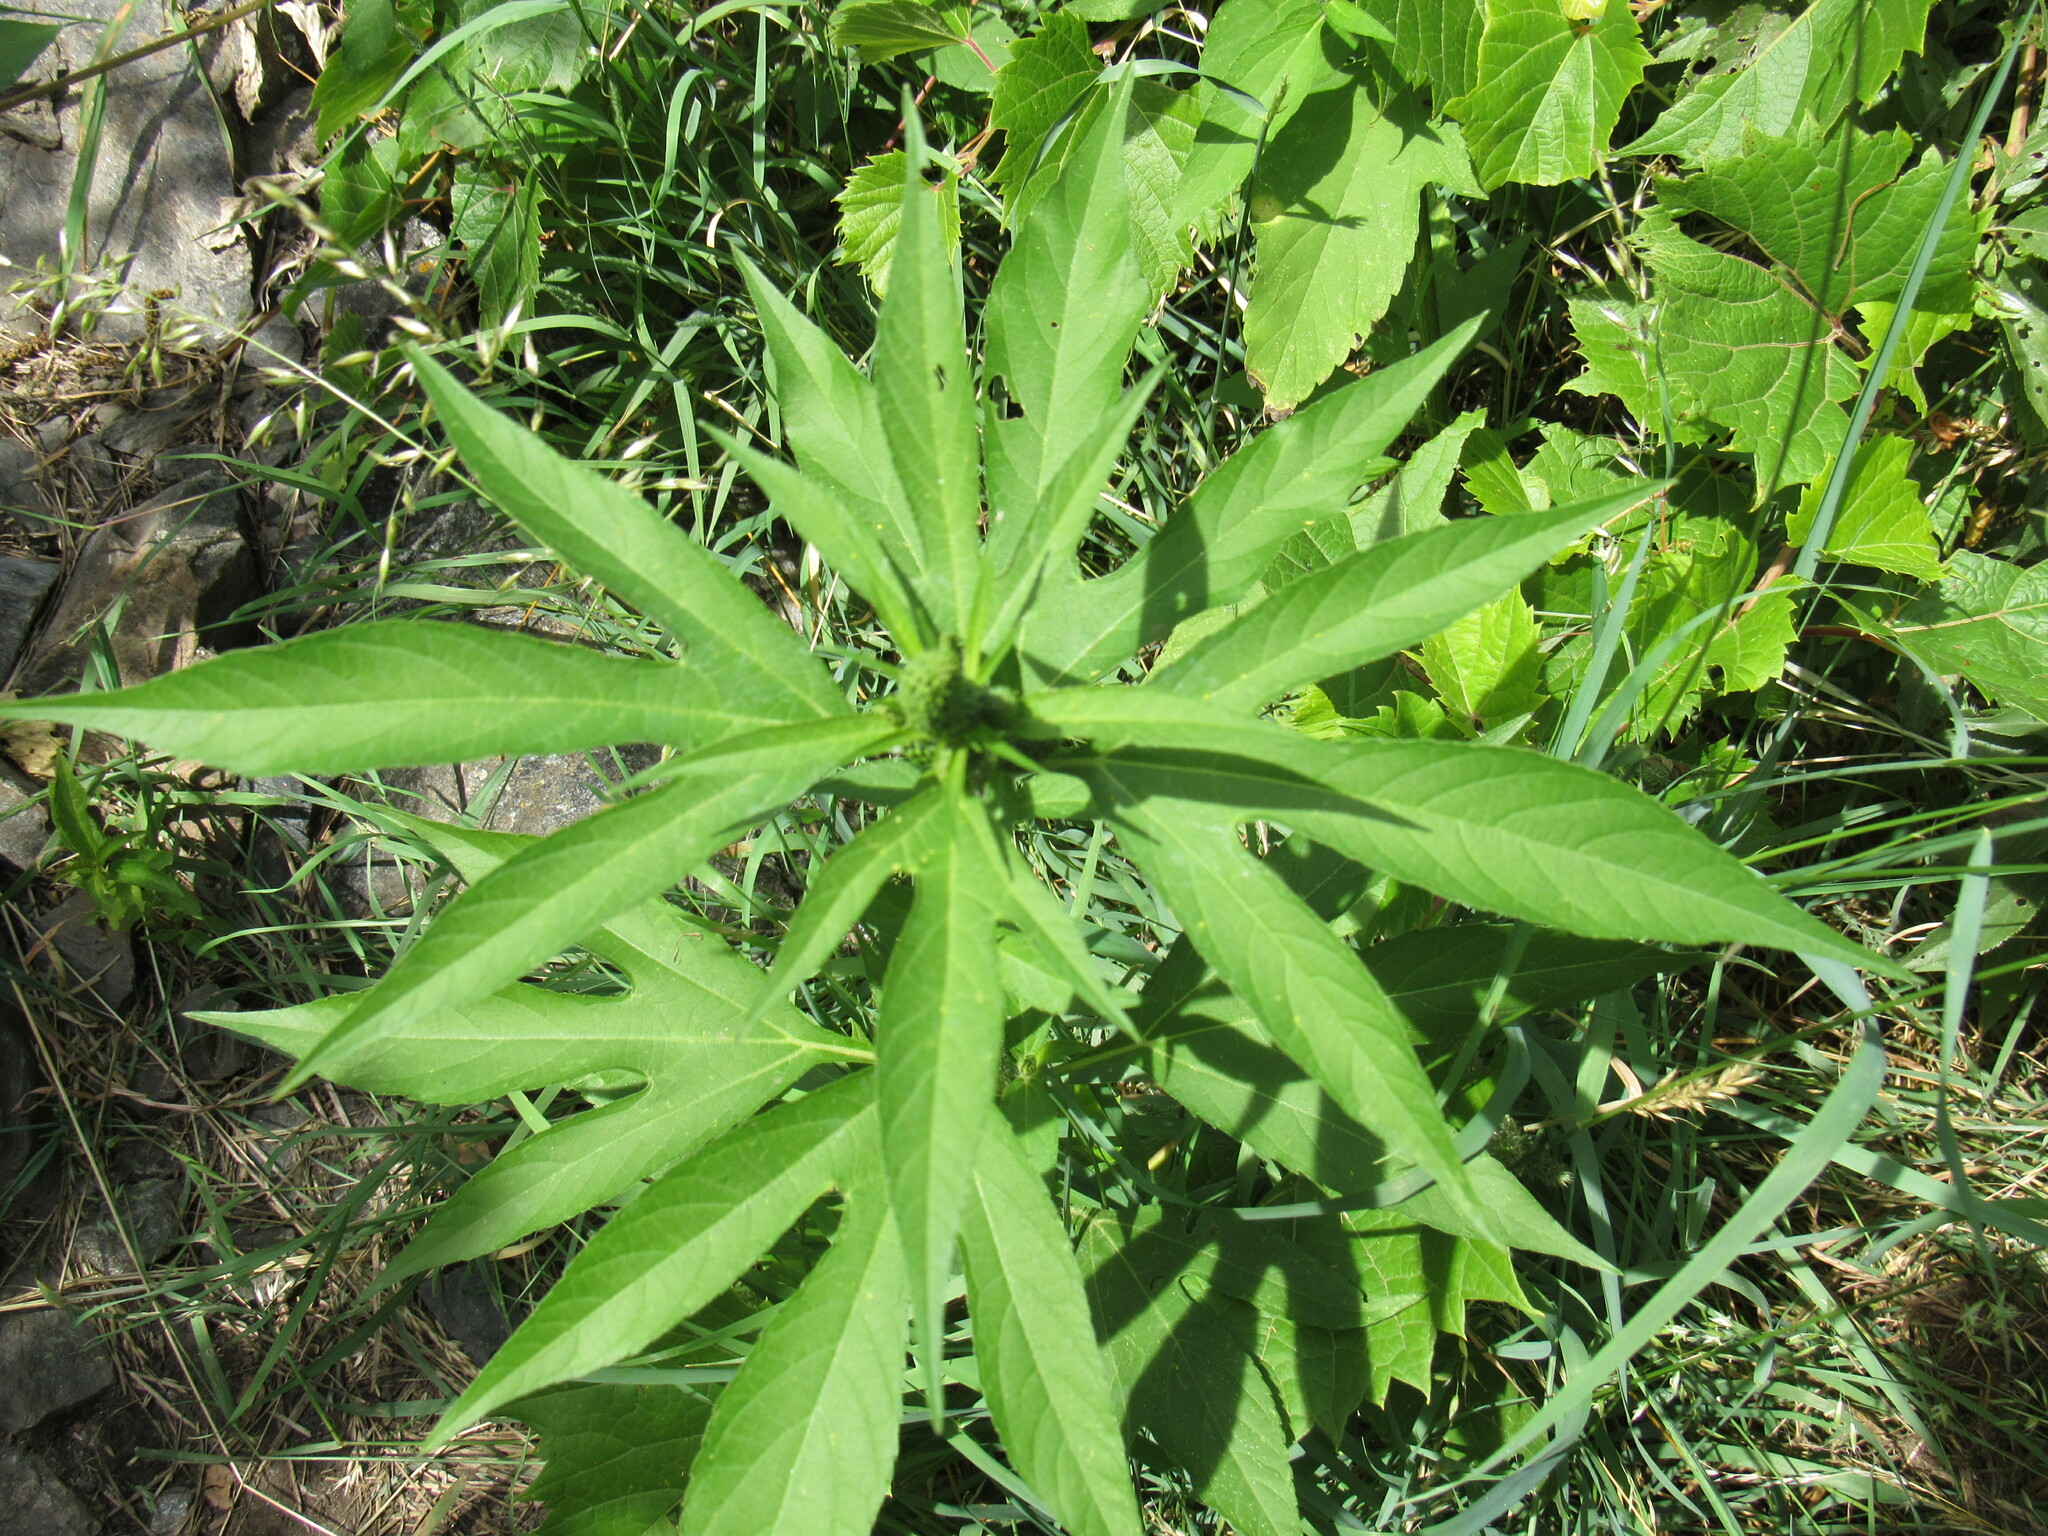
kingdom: Plantae
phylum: Tracheophyta
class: Magnoliopsida
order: Asterales
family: Asteraceae
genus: Ambrosia
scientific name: Ambrosia trifida
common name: Giant ragweed
